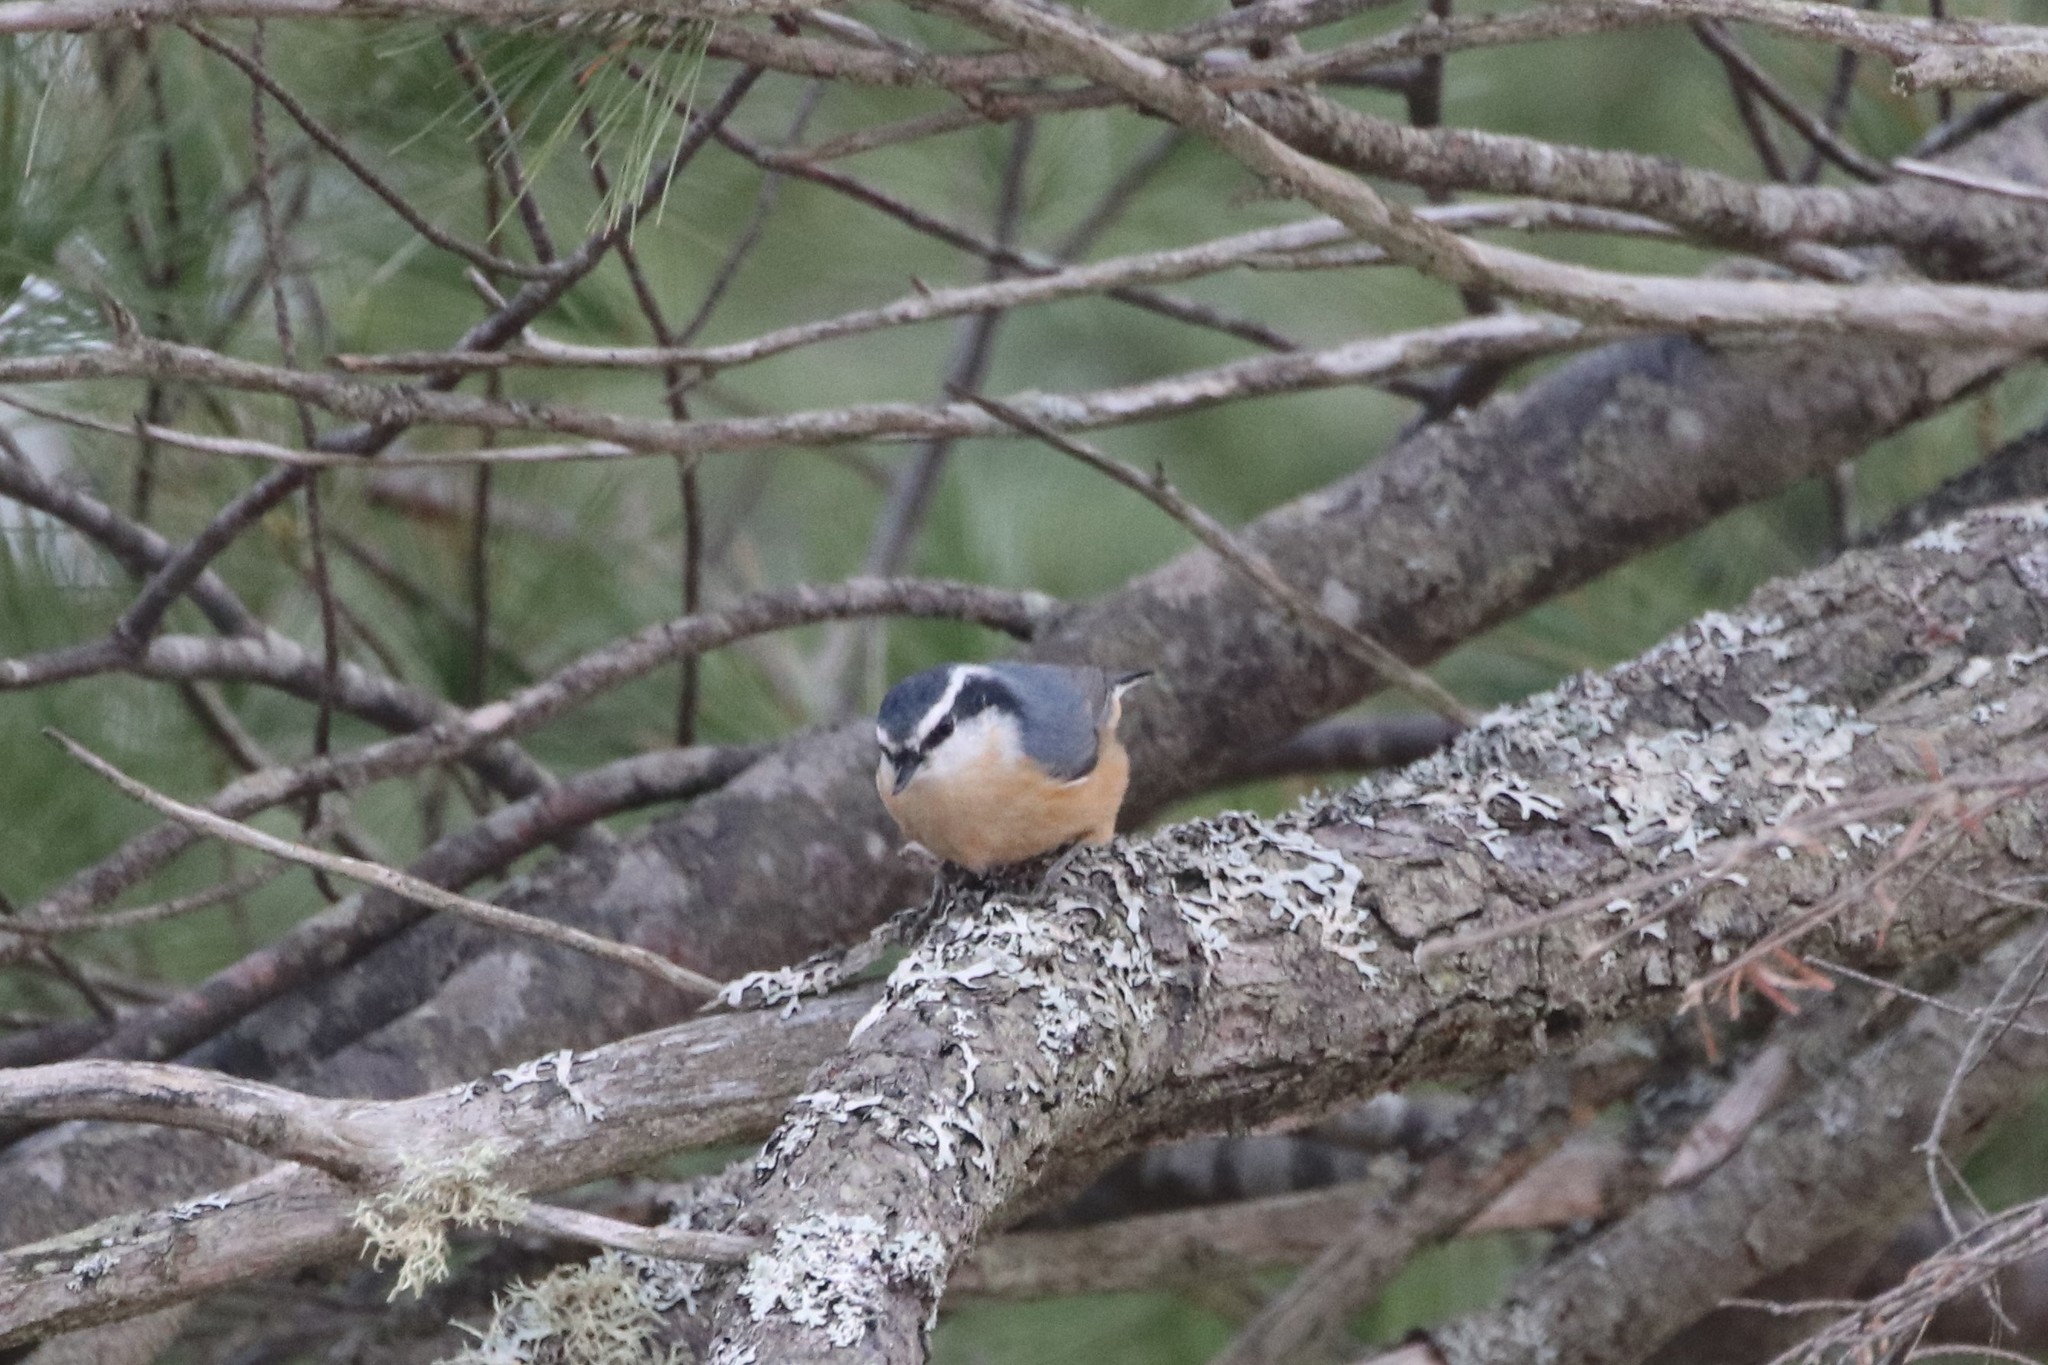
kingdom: Animalia
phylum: Chordata
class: Aves
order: Passeriformes
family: Sittidae
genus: Sitta
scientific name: Sitta canadensis
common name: Red-breasted nuthatch
